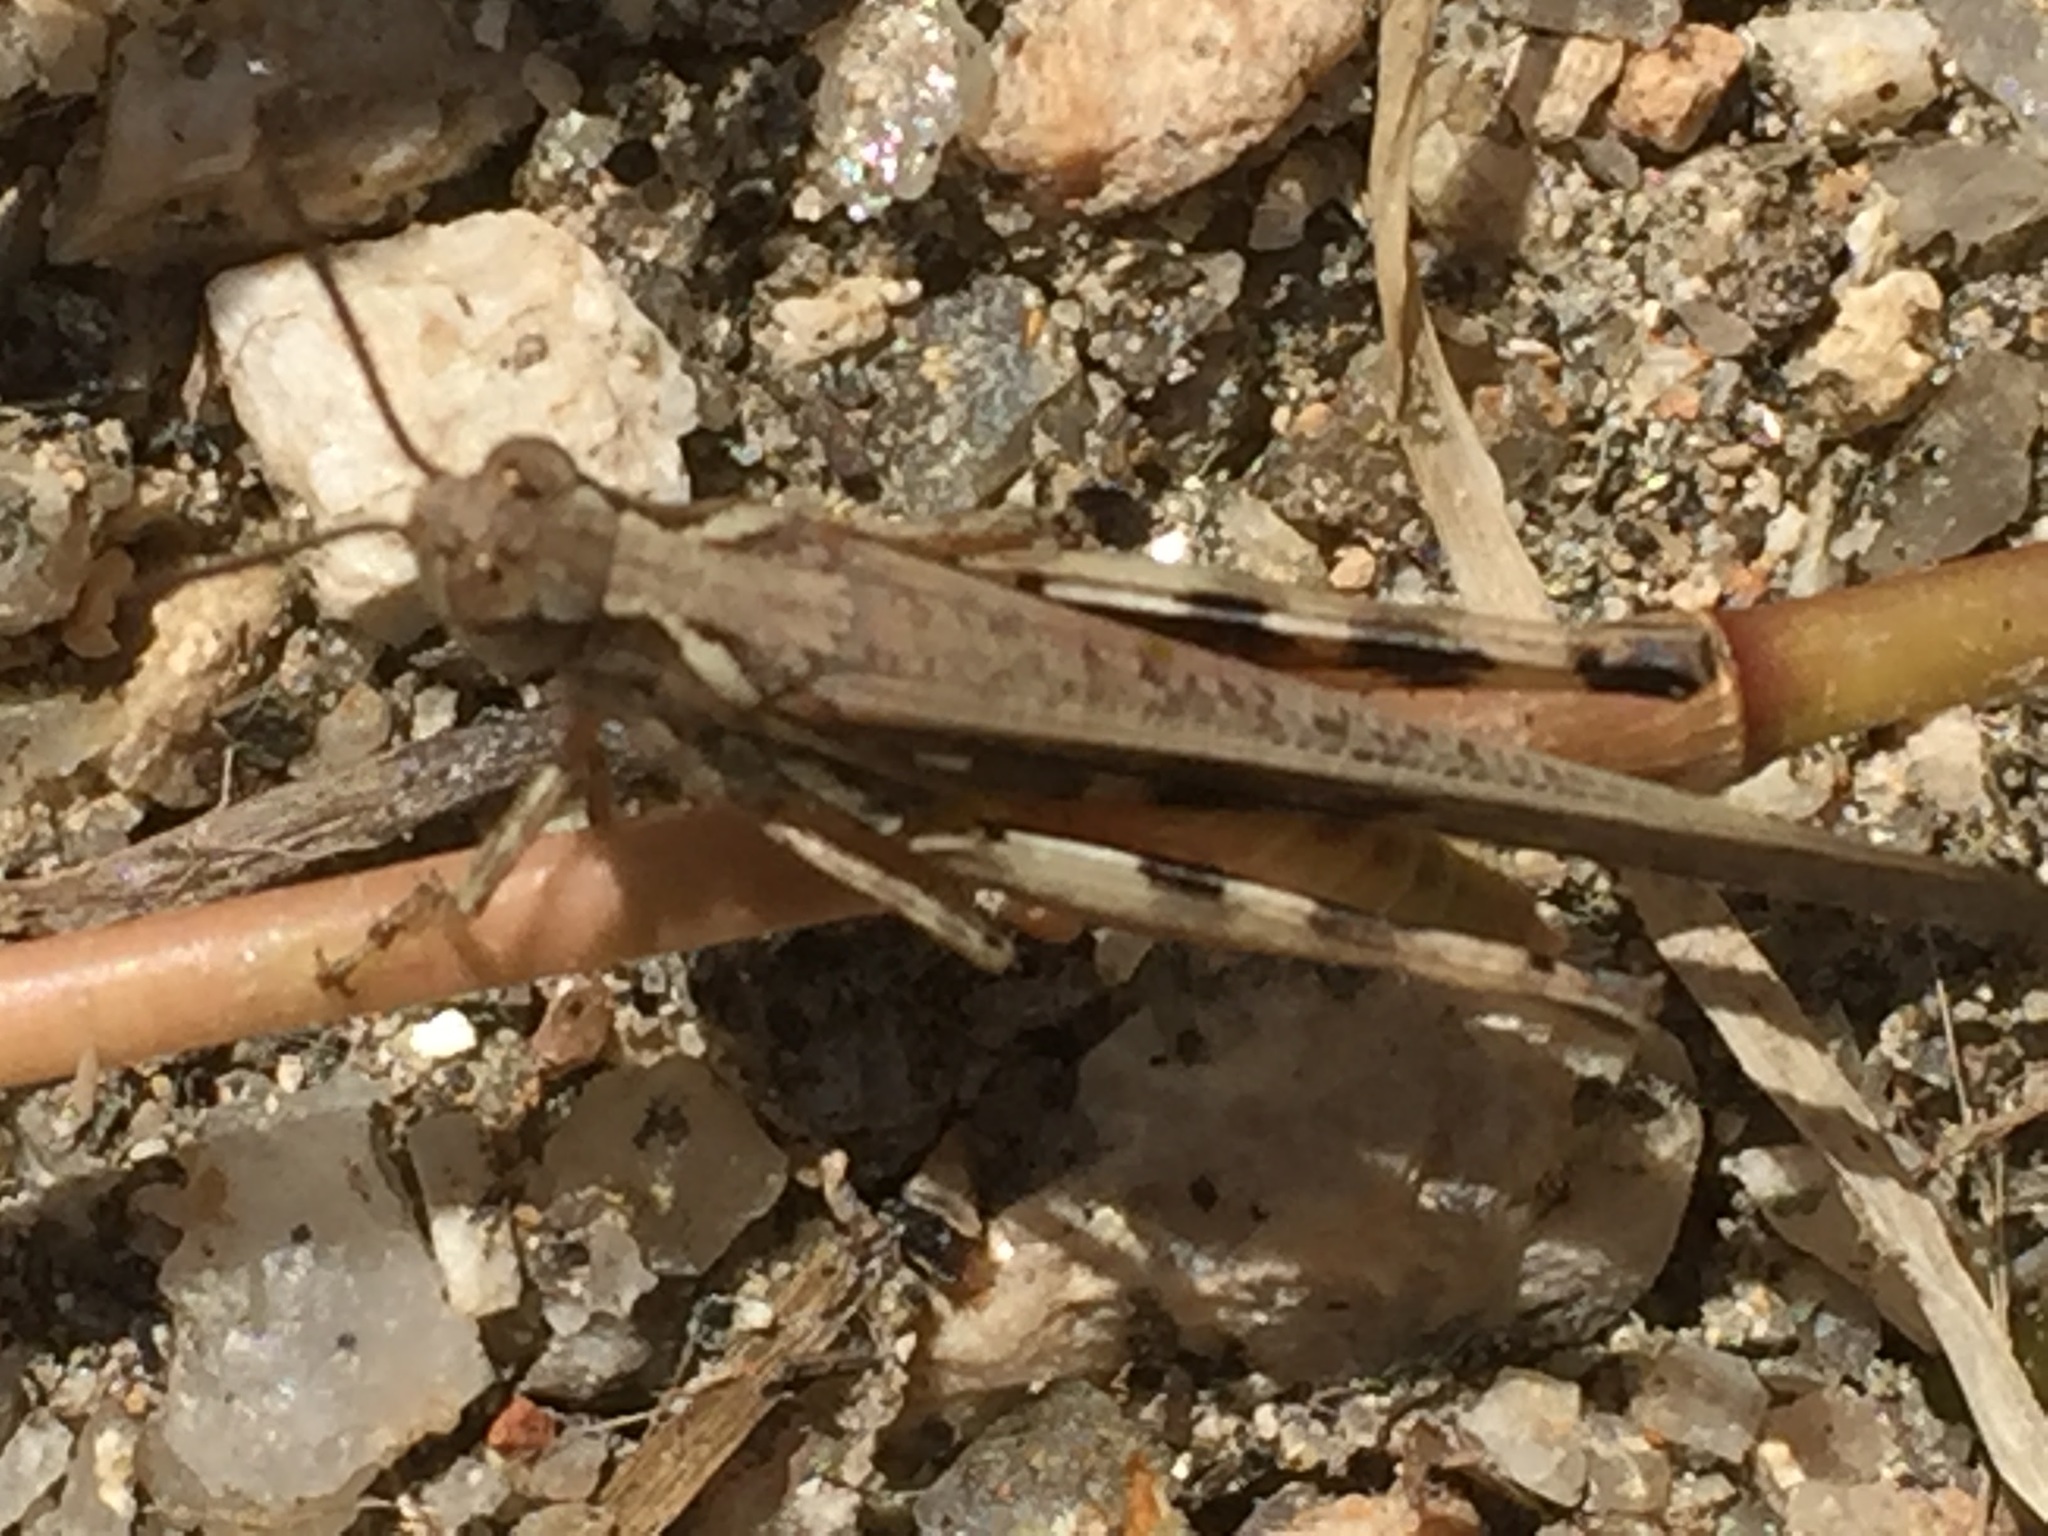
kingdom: Animalia
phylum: Arthropoda
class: Insecta
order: Orthoptera
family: Acrididae
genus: Aiolopus
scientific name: Aiolopus puissanti
